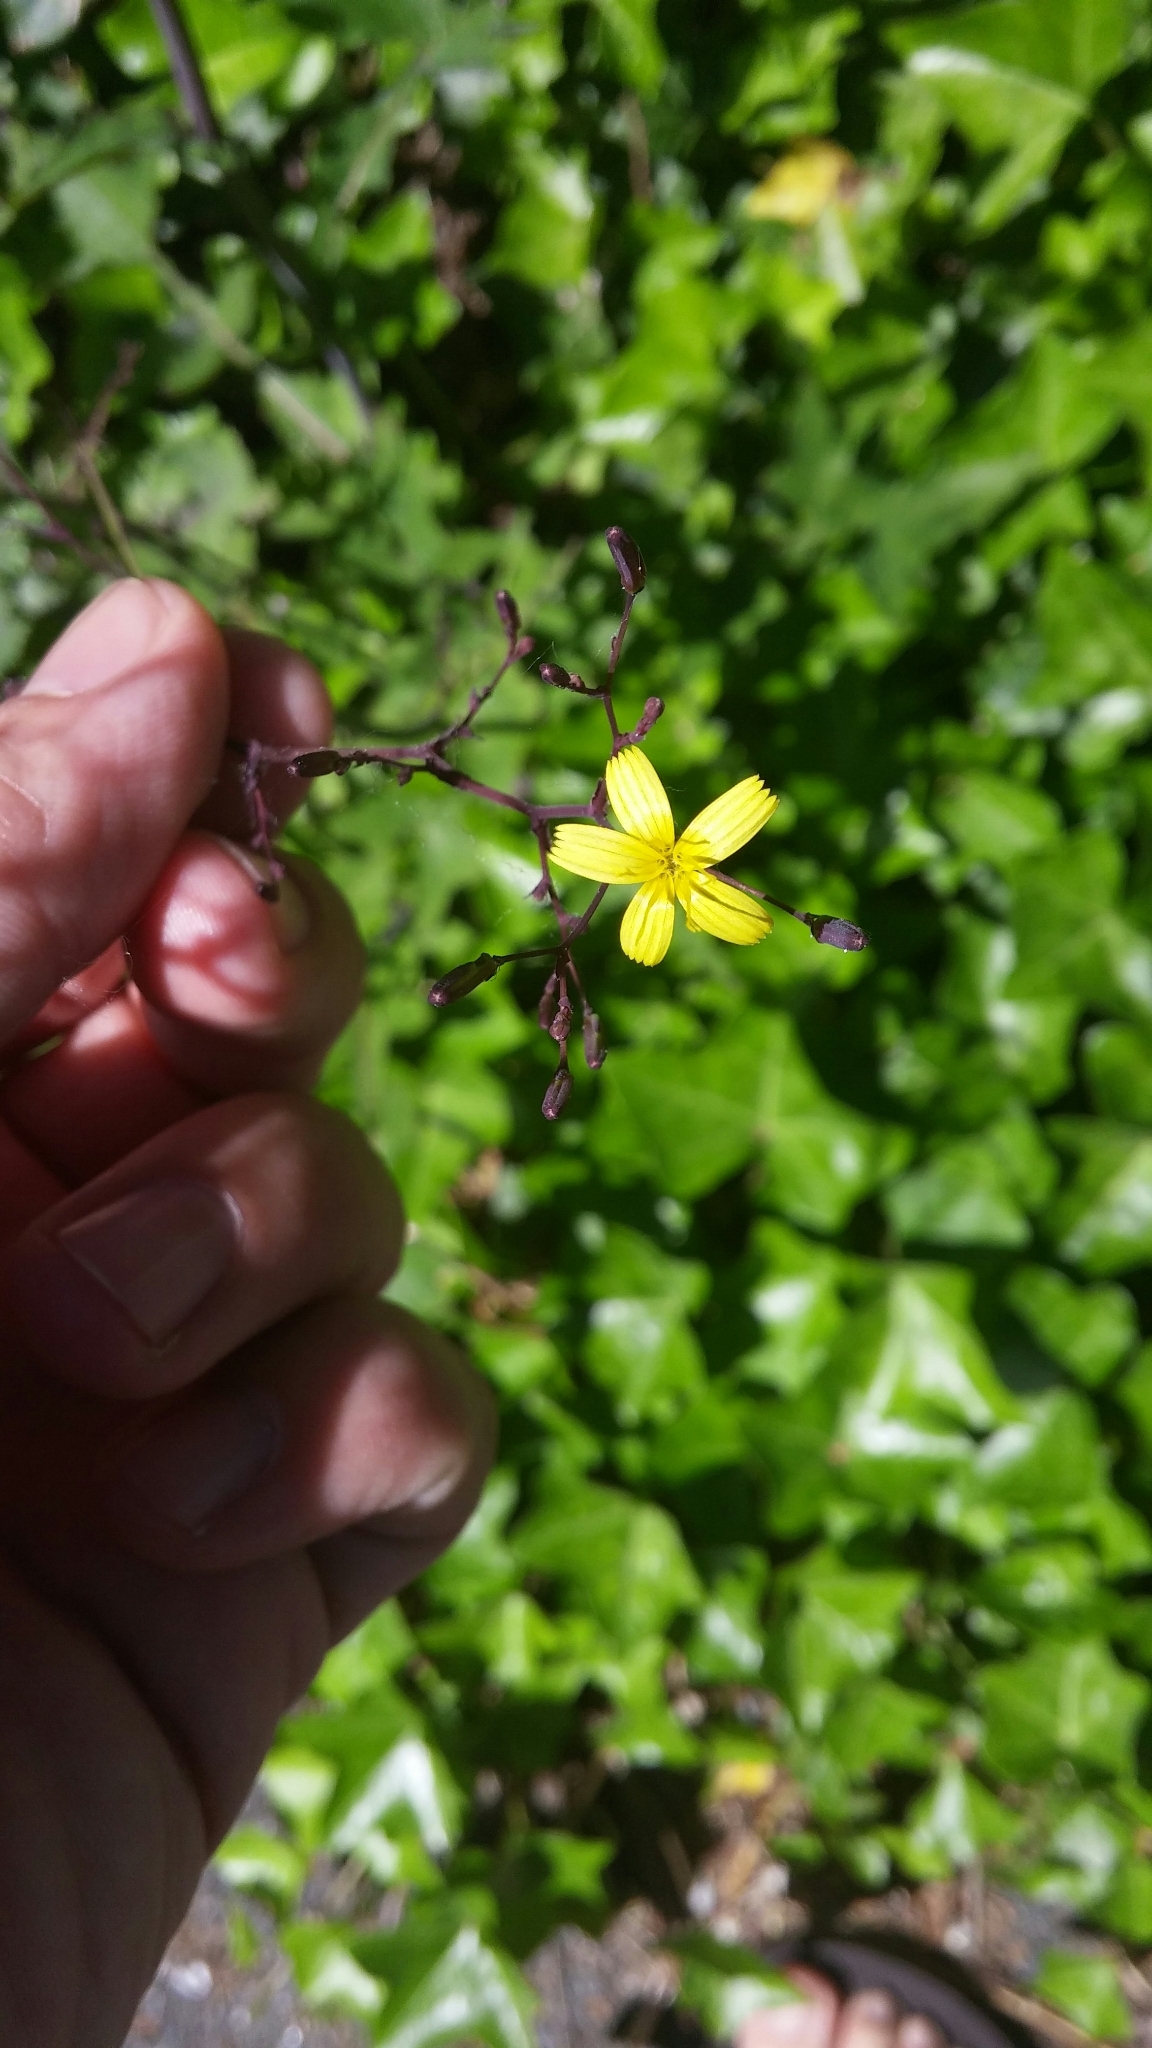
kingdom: Plantae
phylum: Tracheophyta
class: Magnoliopsida
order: Asterales
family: Asteraceae
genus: Mycelis
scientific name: Mycelis muralis
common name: Wall lettuce
